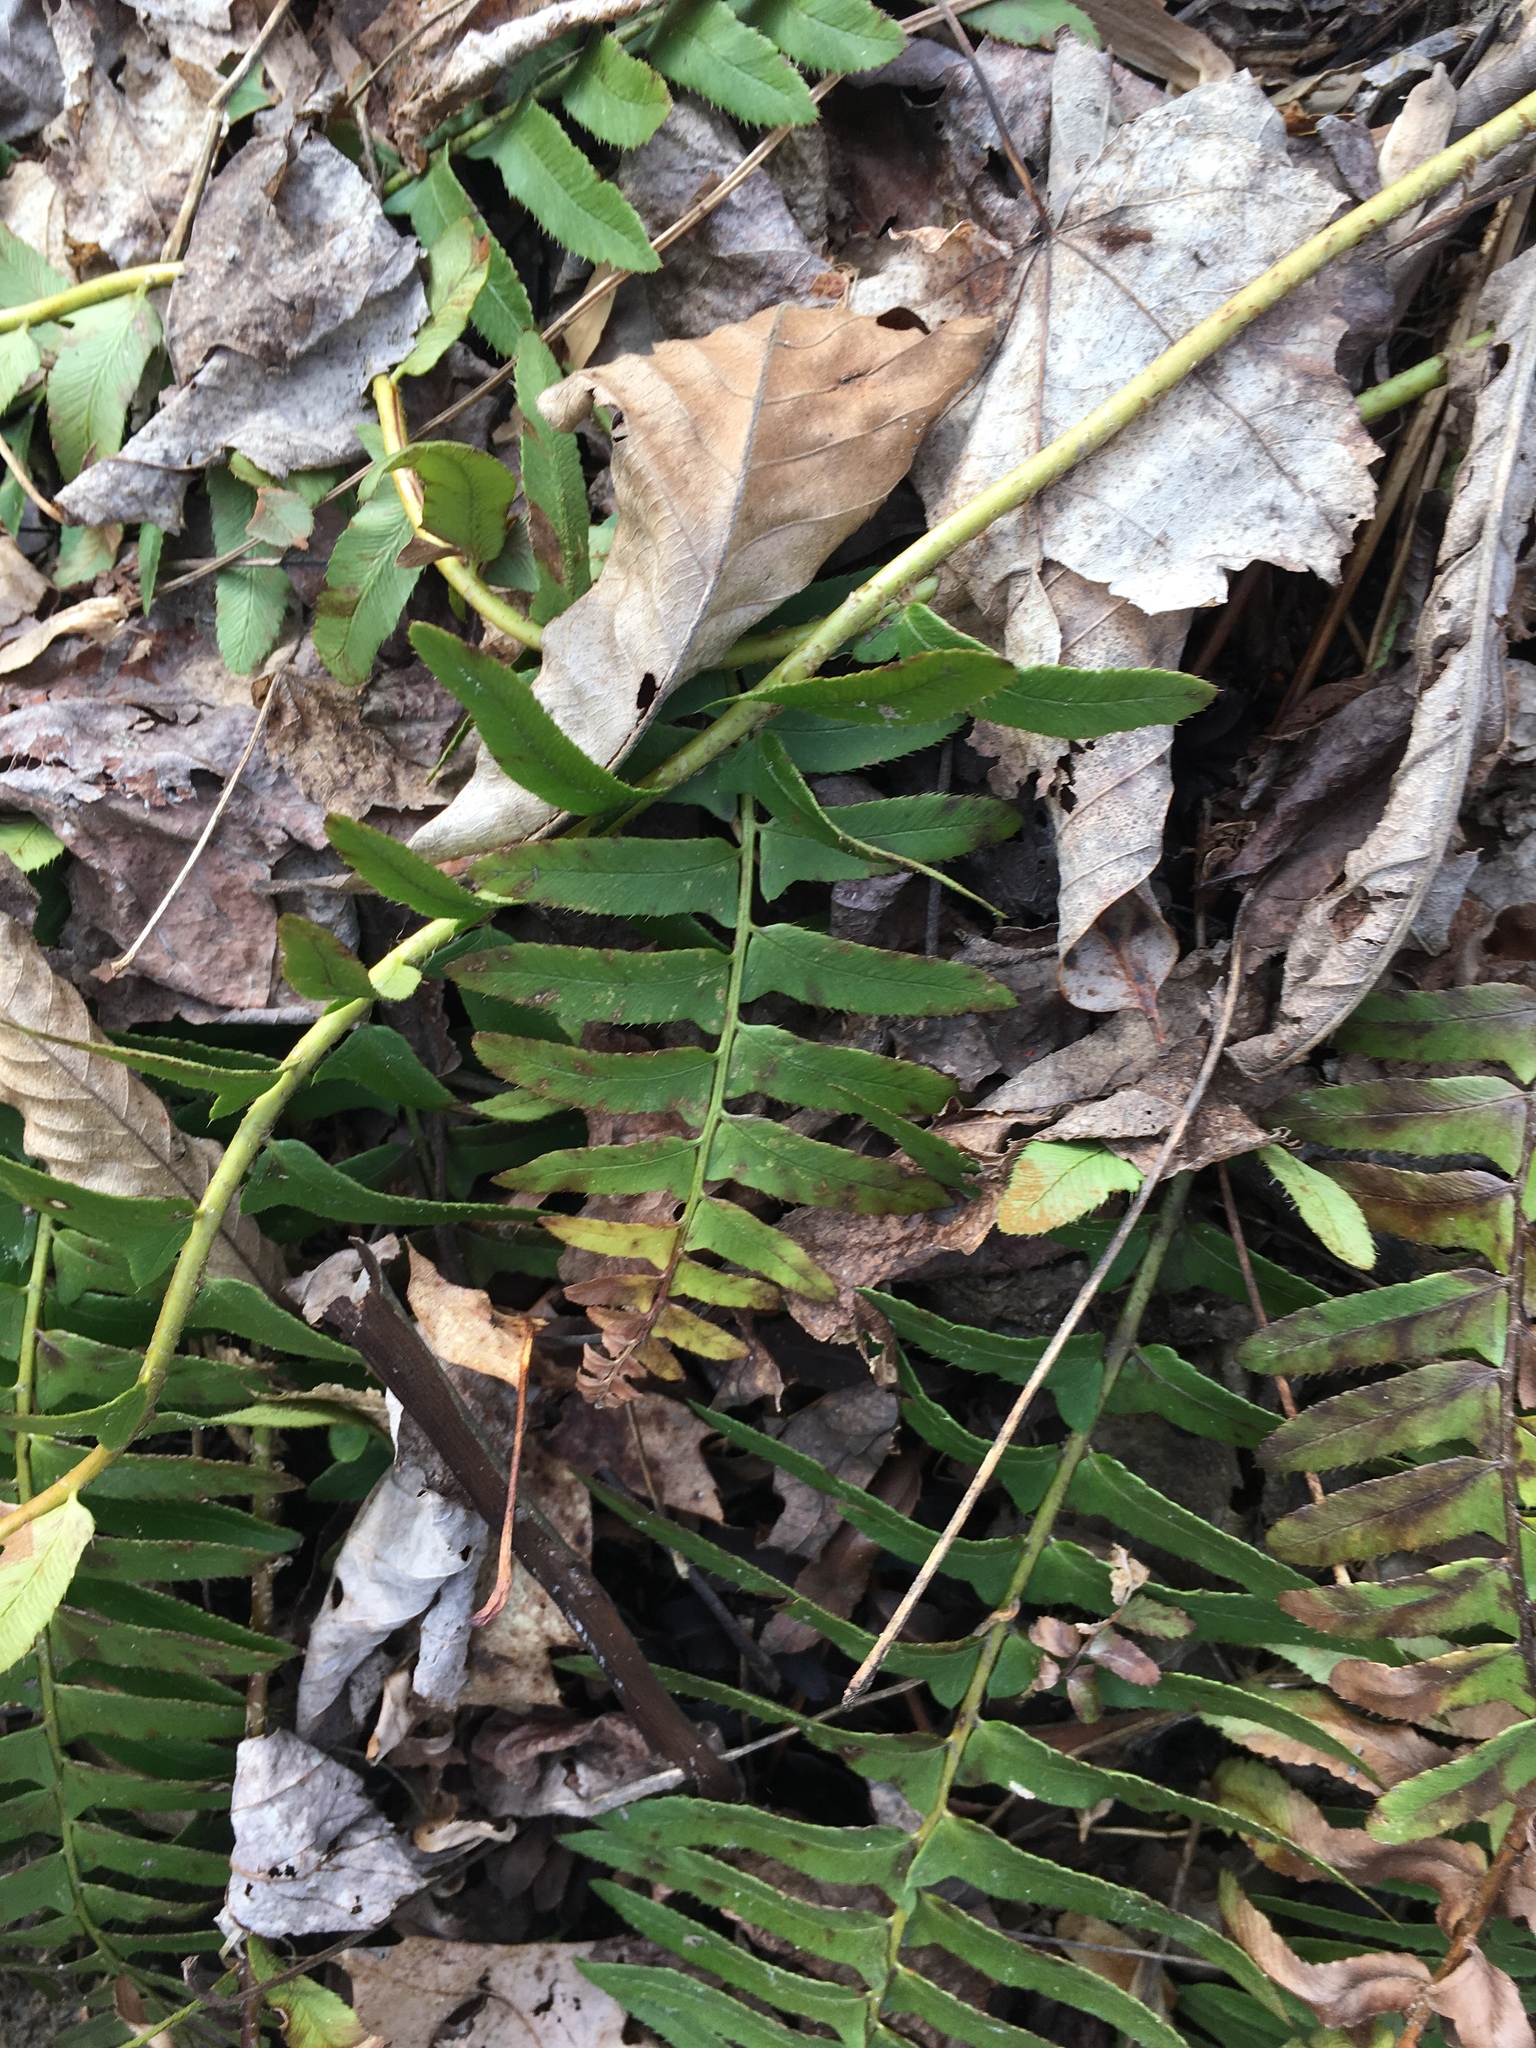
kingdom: Plantae
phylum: Tracheophyta
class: Polypodiopsida
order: Polypodiales
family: Dryopteridaceae
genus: Polystichum
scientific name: Polystichum acrostichoides
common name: Christmas fern
